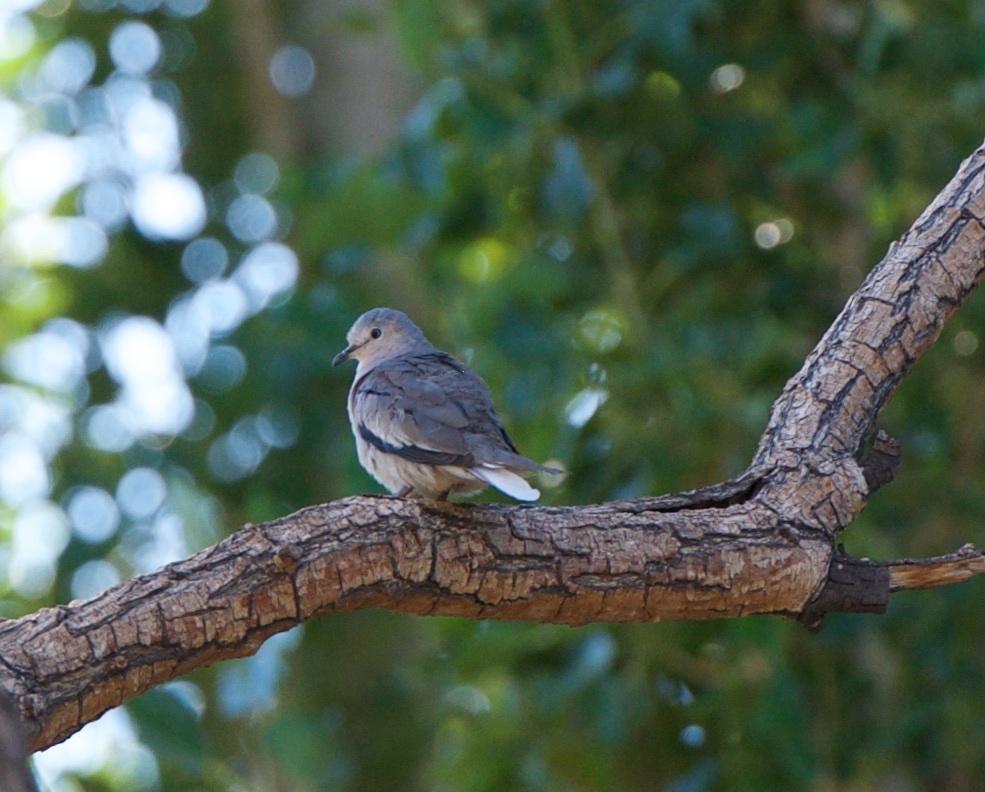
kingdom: Animalia
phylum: Chordata
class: Aves
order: Columbiformes
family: Columbidae
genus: Columbina
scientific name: Columbina picui
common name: Picui ground dove
